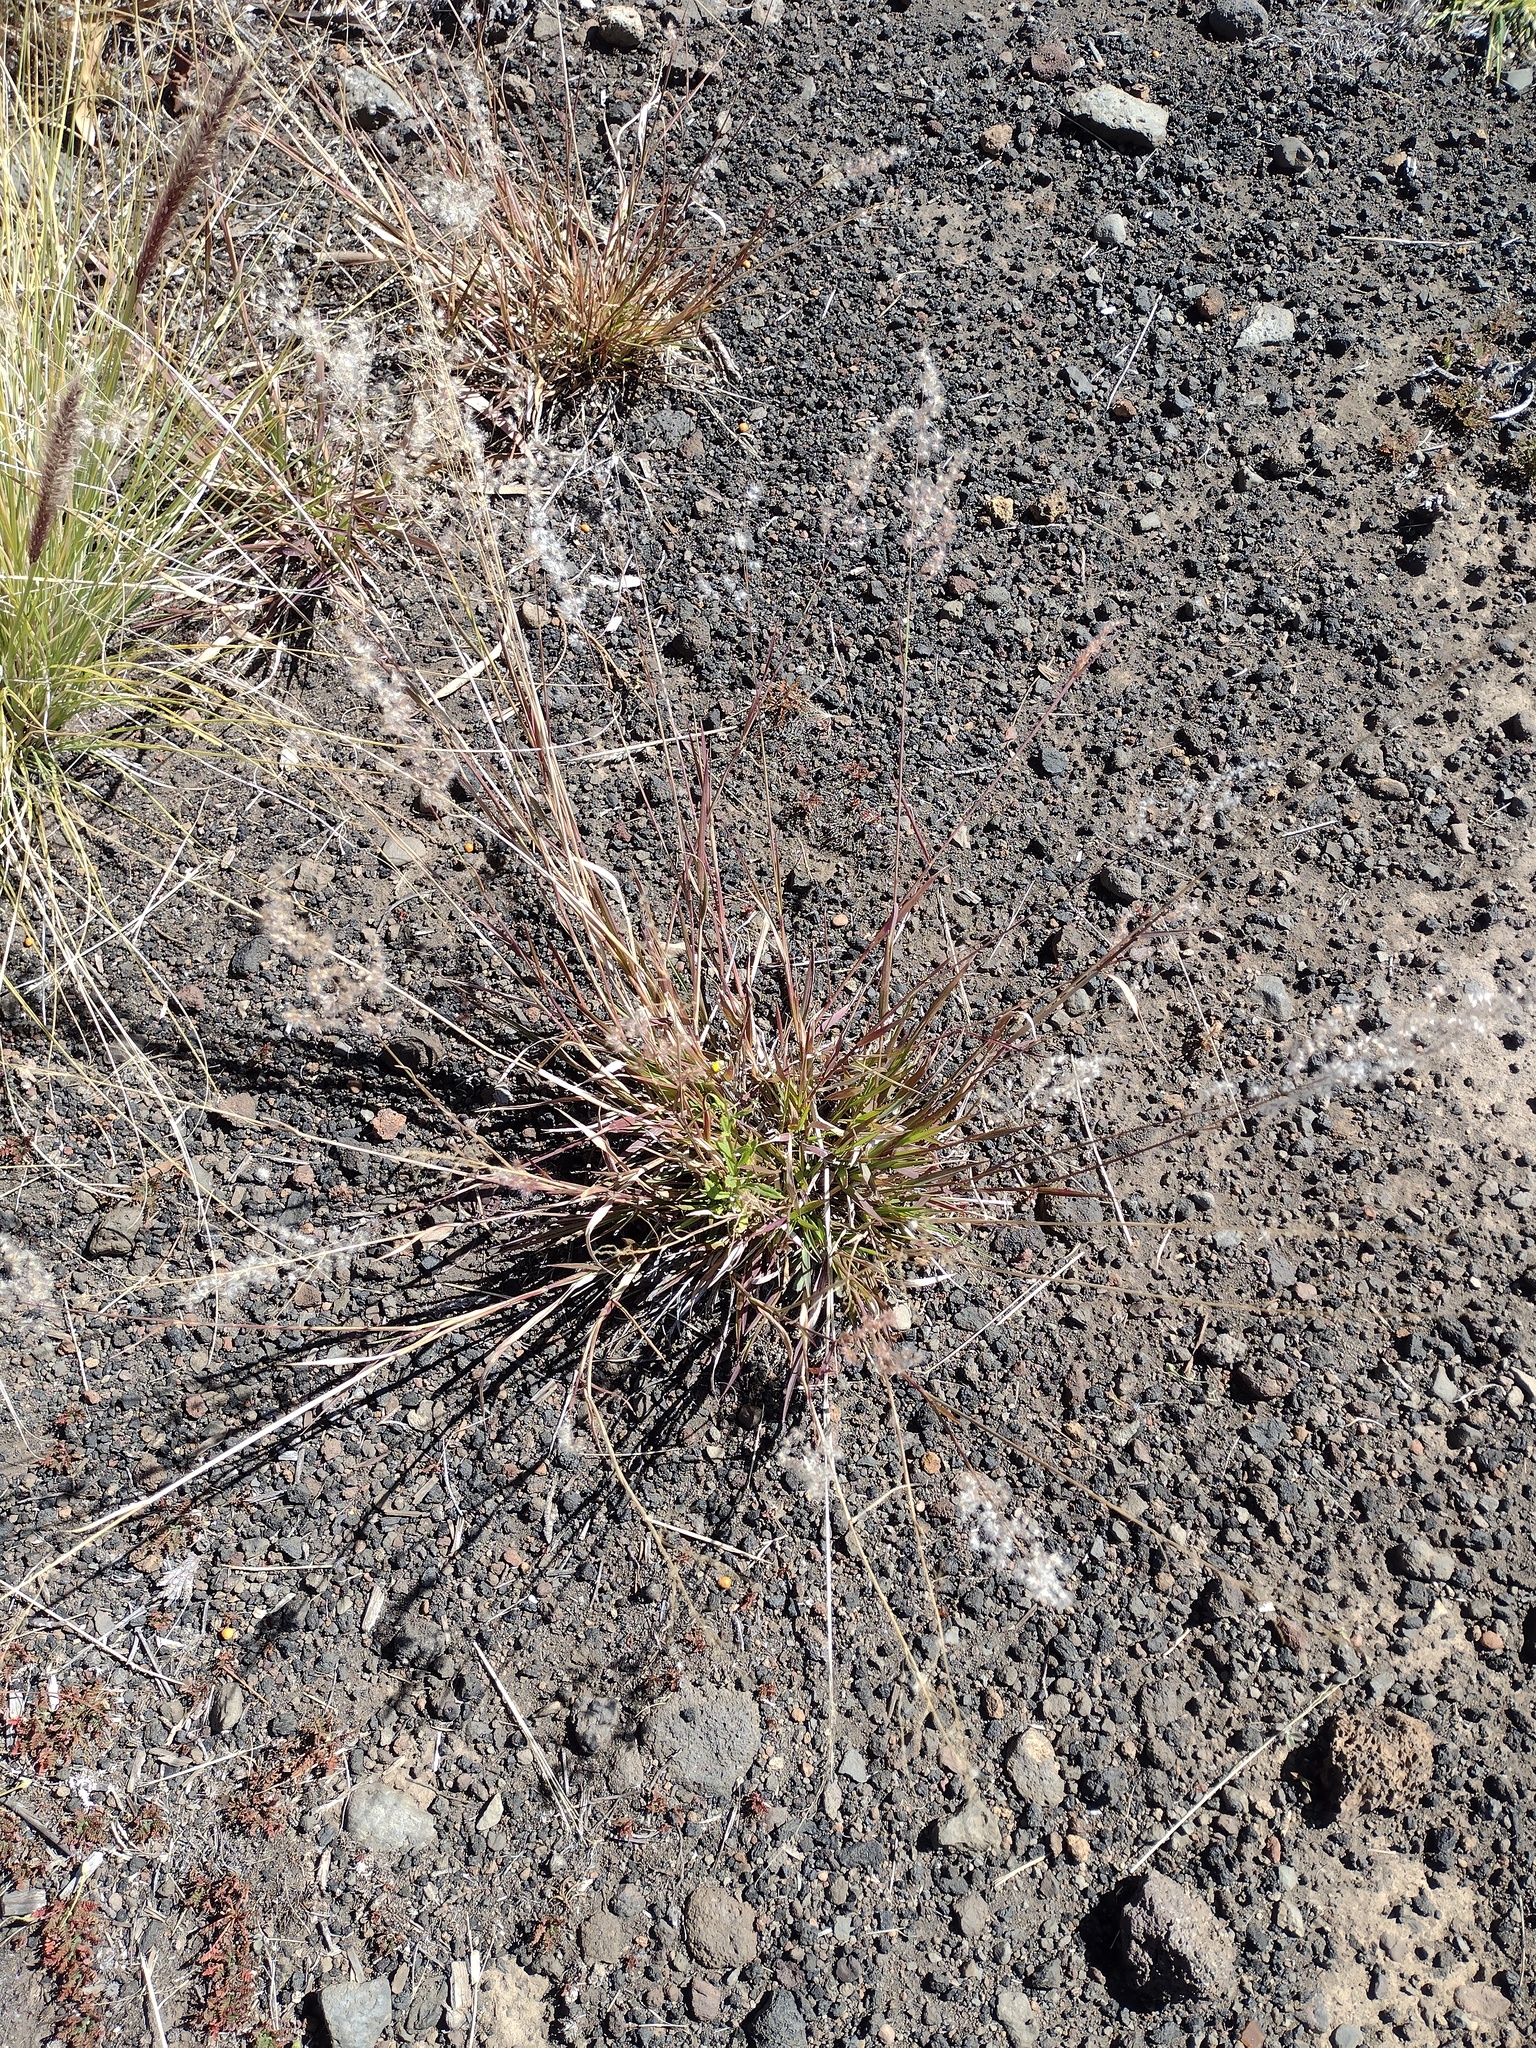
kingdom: Plantae
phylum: Tracheophyta
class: Liliopsida
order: Poales
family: Poaceae
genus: Melinis
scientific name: Melinis repens
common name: Rose natal grass
